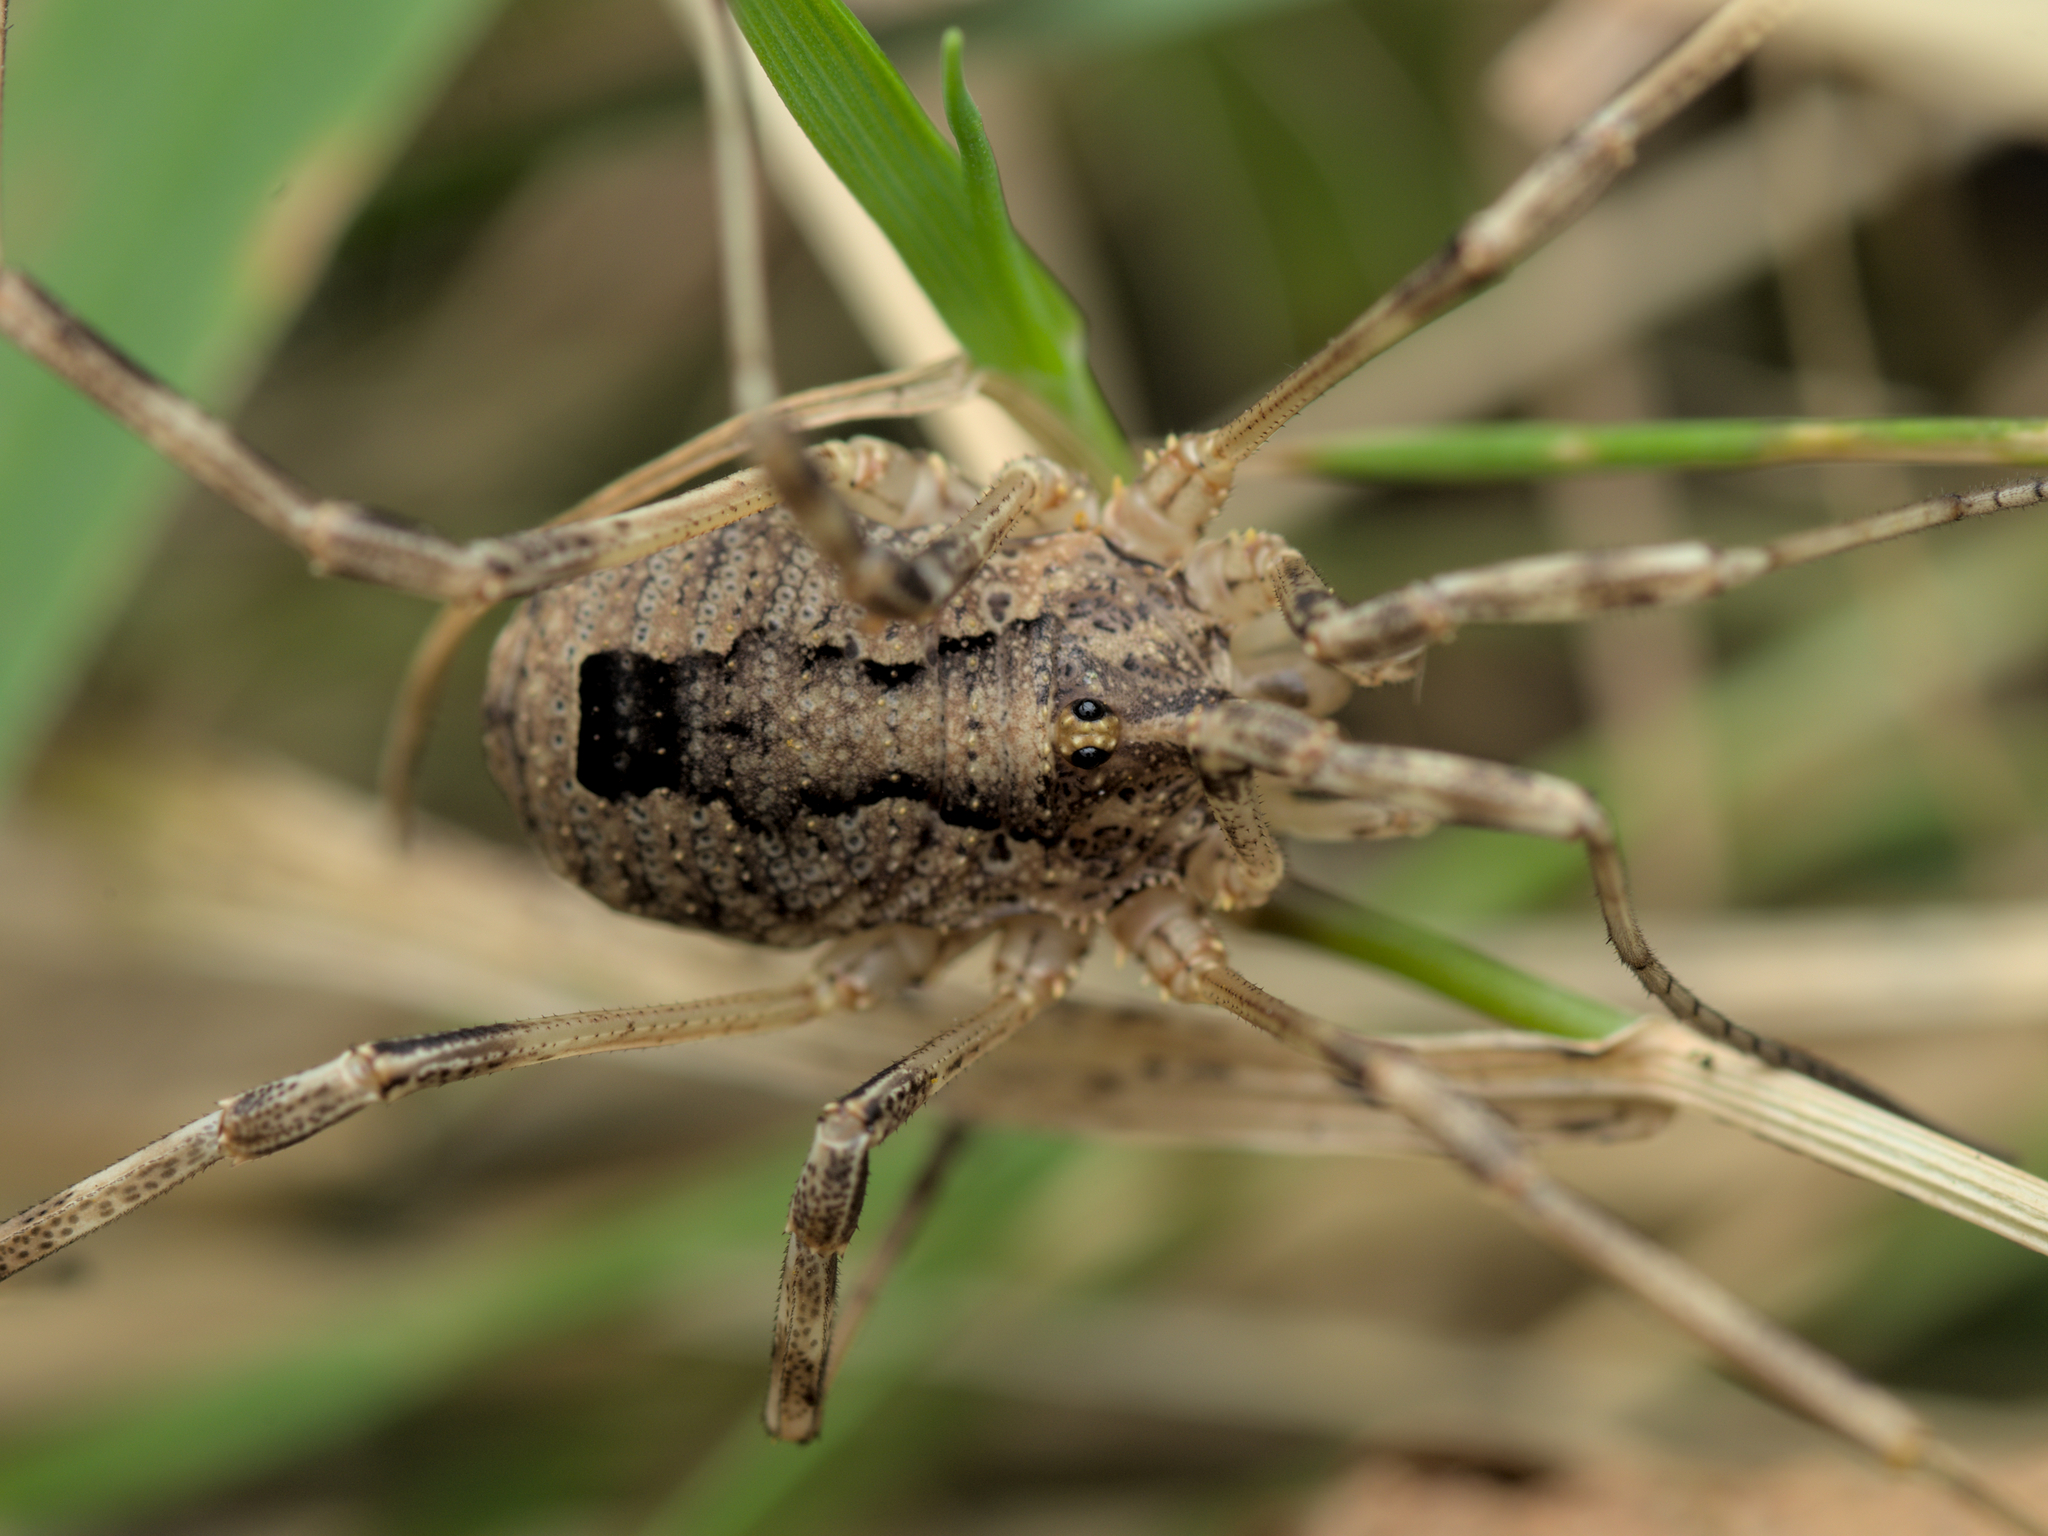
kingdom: Animalia
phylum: Arthropoda
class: Arachnida
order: Opiliones
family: Phalangiidae
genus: Odiellus
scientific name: Odiellus spinosus
